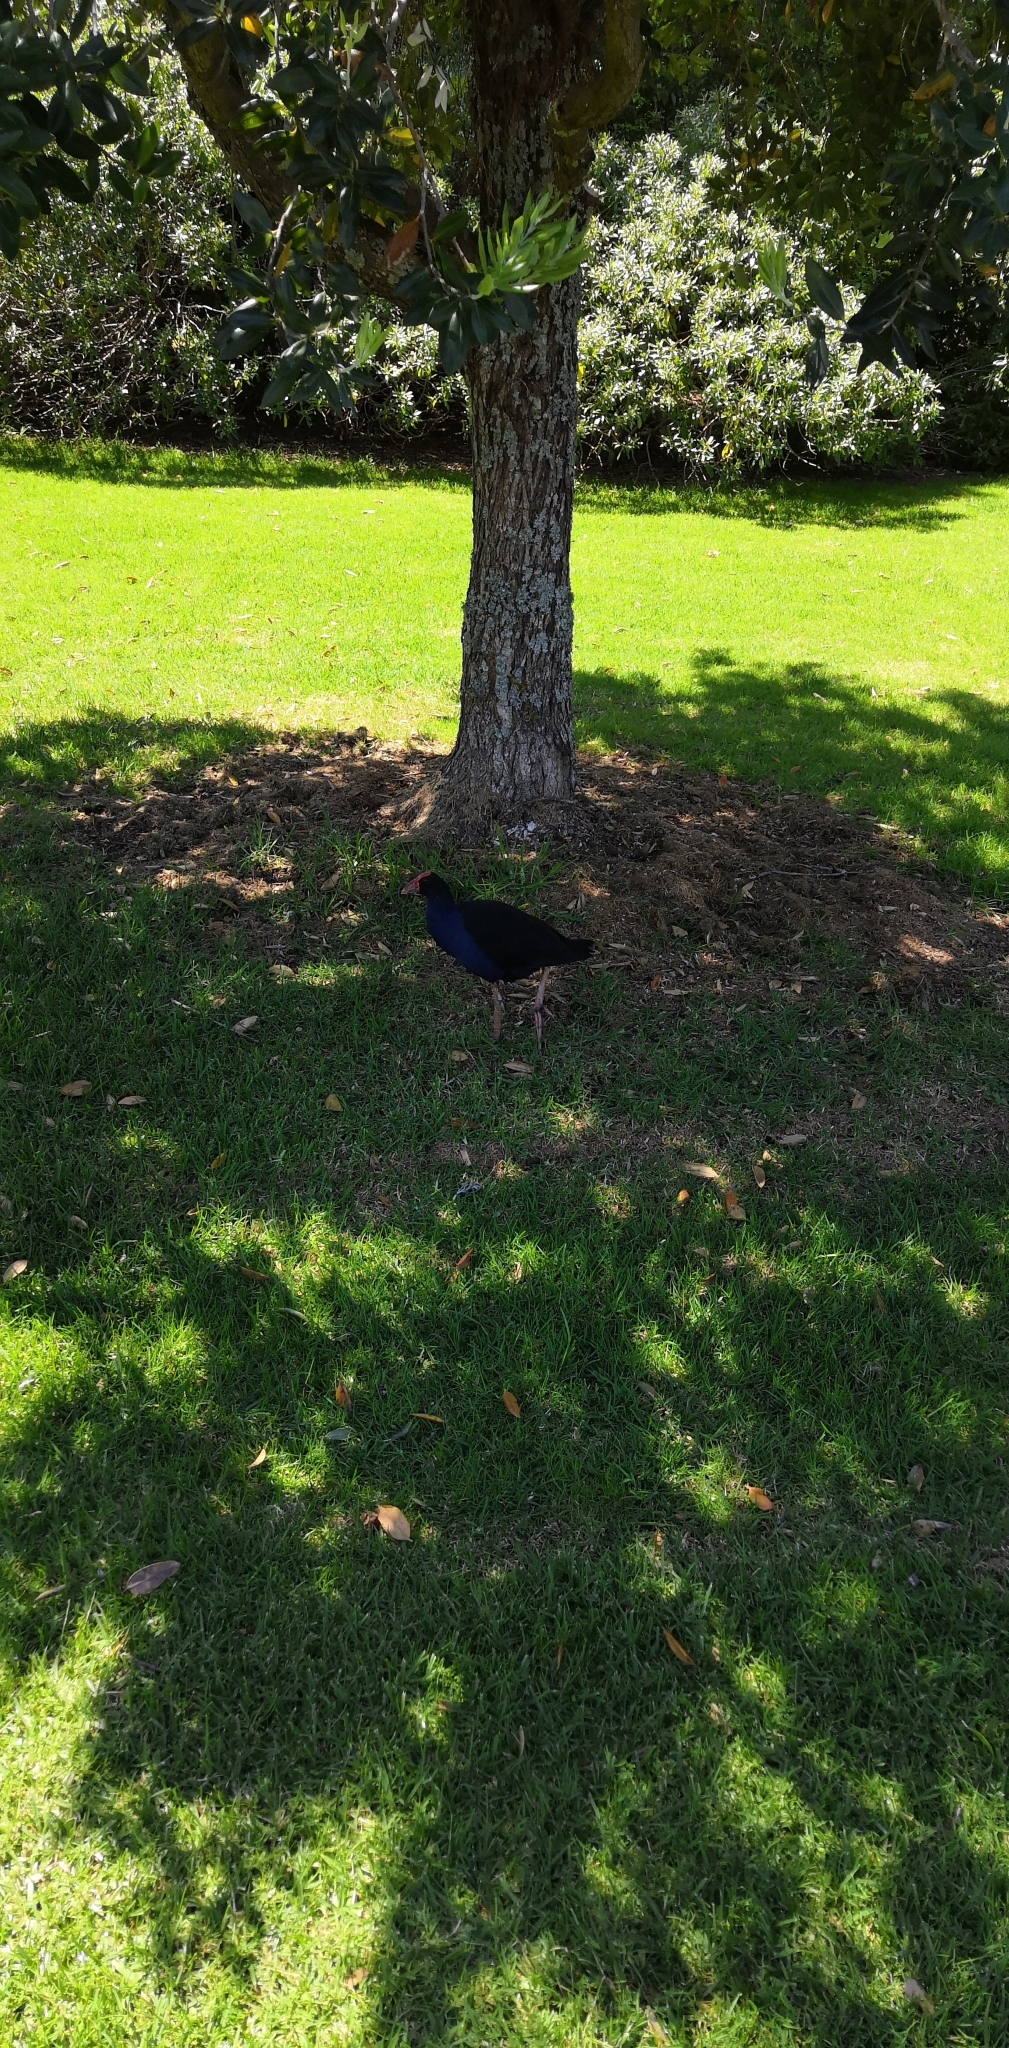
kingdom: Animalia
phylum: Chordata
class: Aves
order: Gruiformes
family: Rallidae
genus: Porphyrio
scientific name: Porphyrio melanotus
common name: Australasian swamphen
